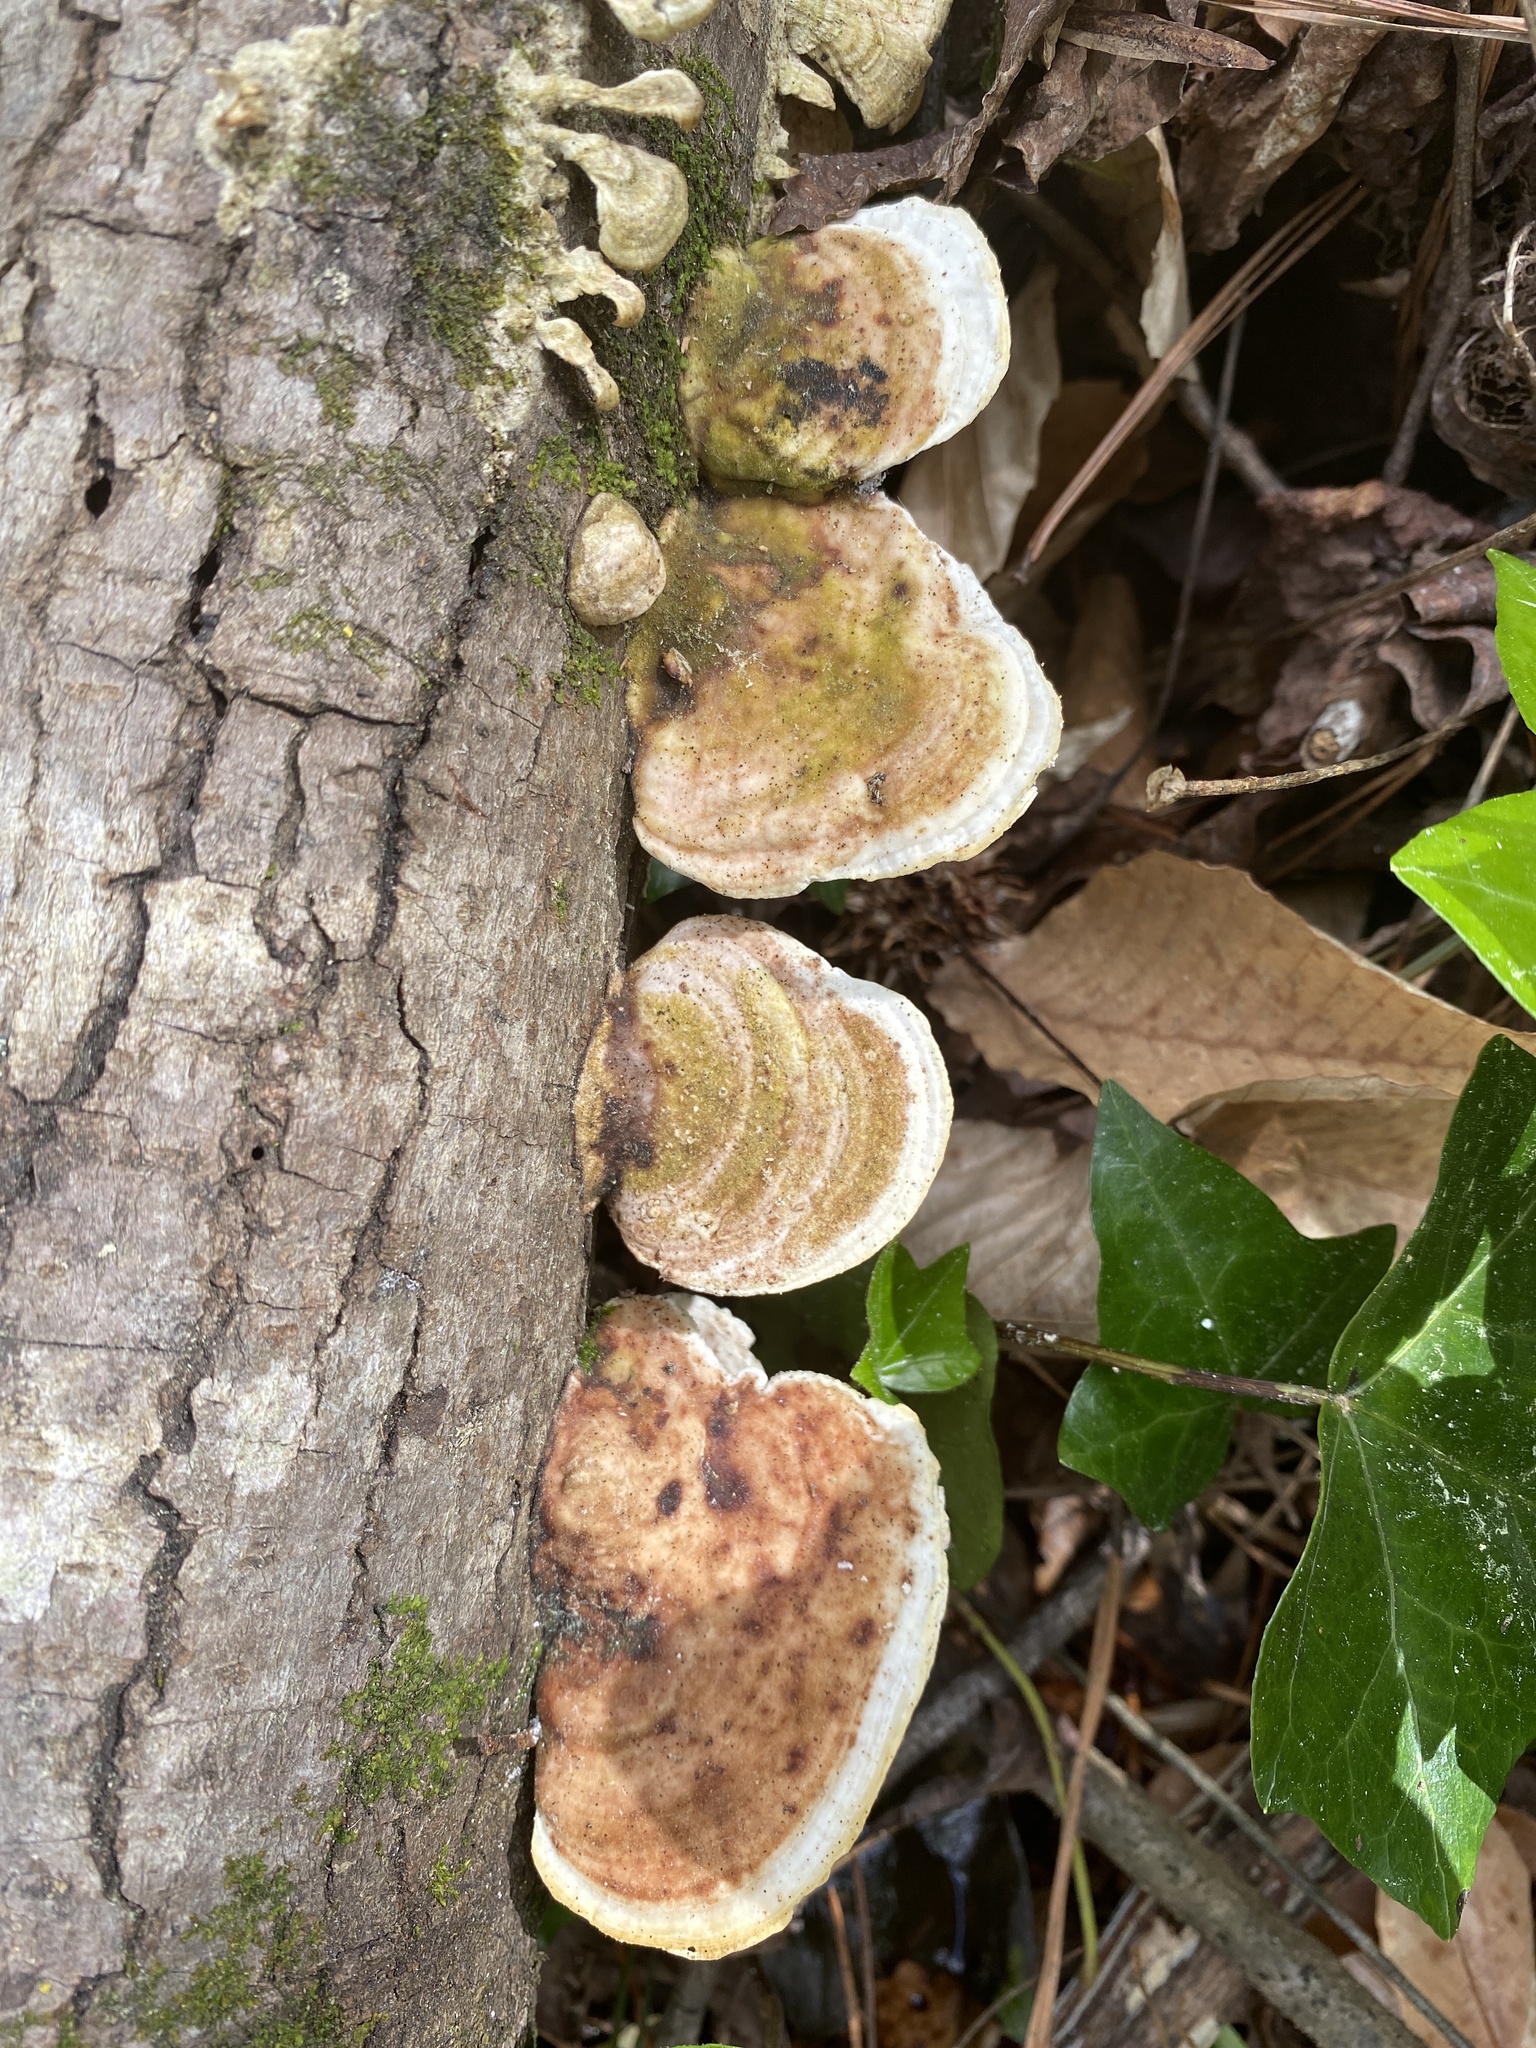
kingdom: Fungi
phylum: Basidiomycota
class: Agaricomycetes
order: Polyporales
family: Polyporaceae
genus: Trametes
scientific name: Trametes gibbosa
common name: Lumpy bracket
